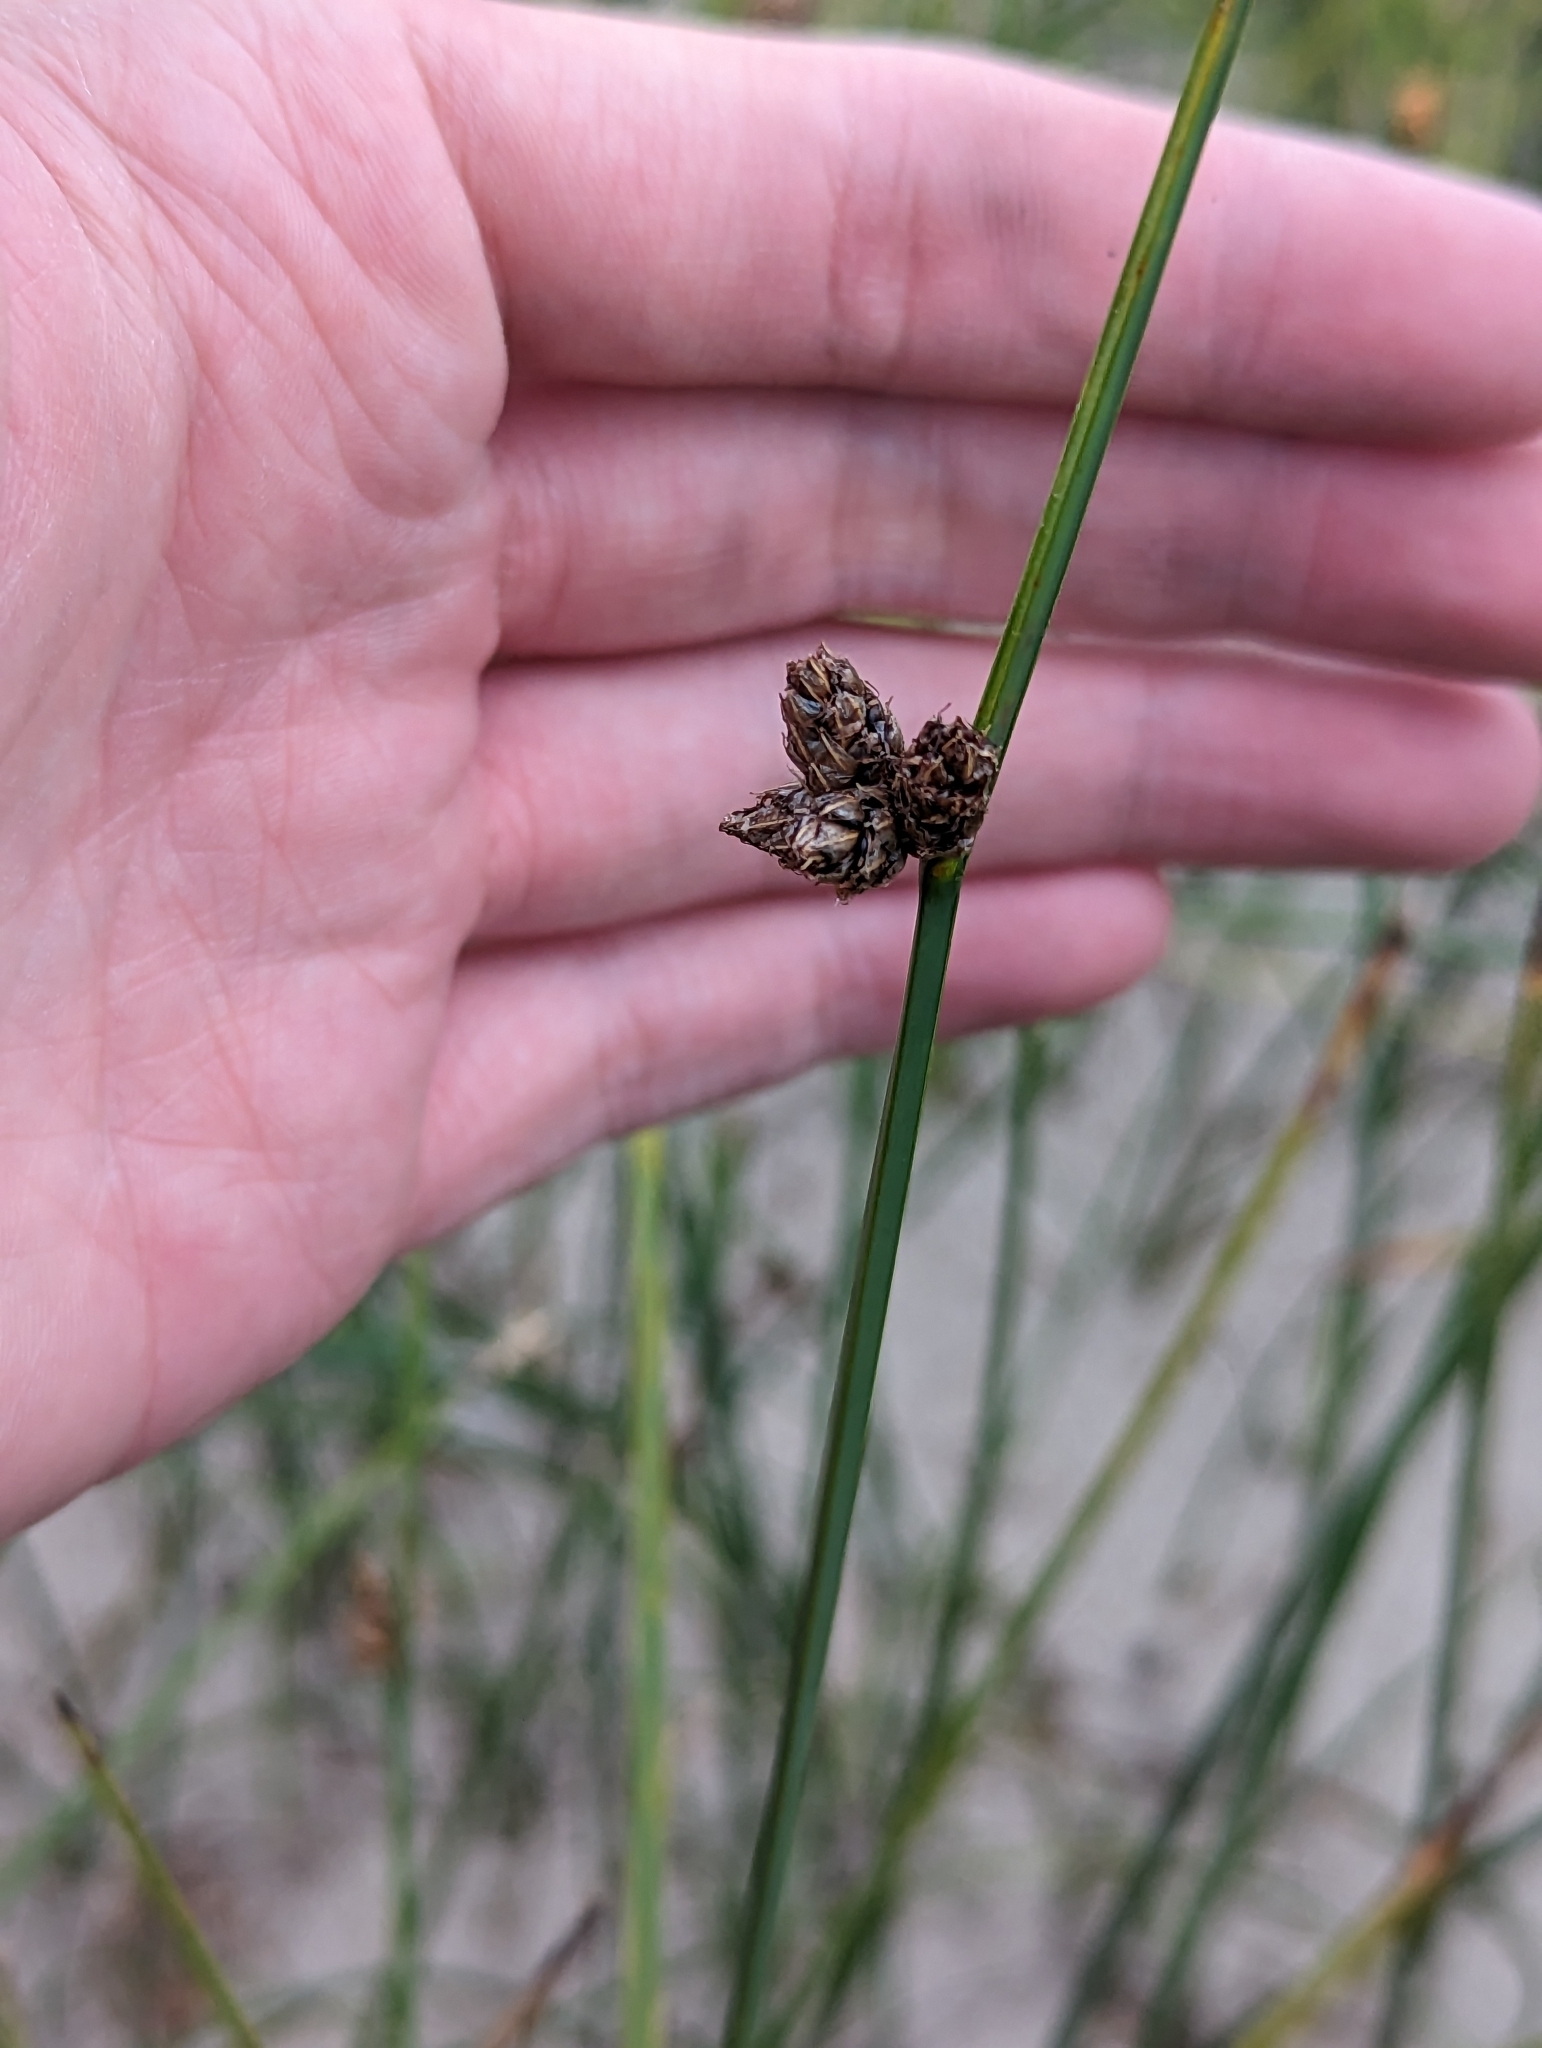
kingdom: Plantae
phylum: Tracheophyta
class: Liliopsida
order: Poales
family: Cyperaceae
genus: Schoenoplectus
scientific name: Schoenoplectus pungens
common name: Sharp club-rush
